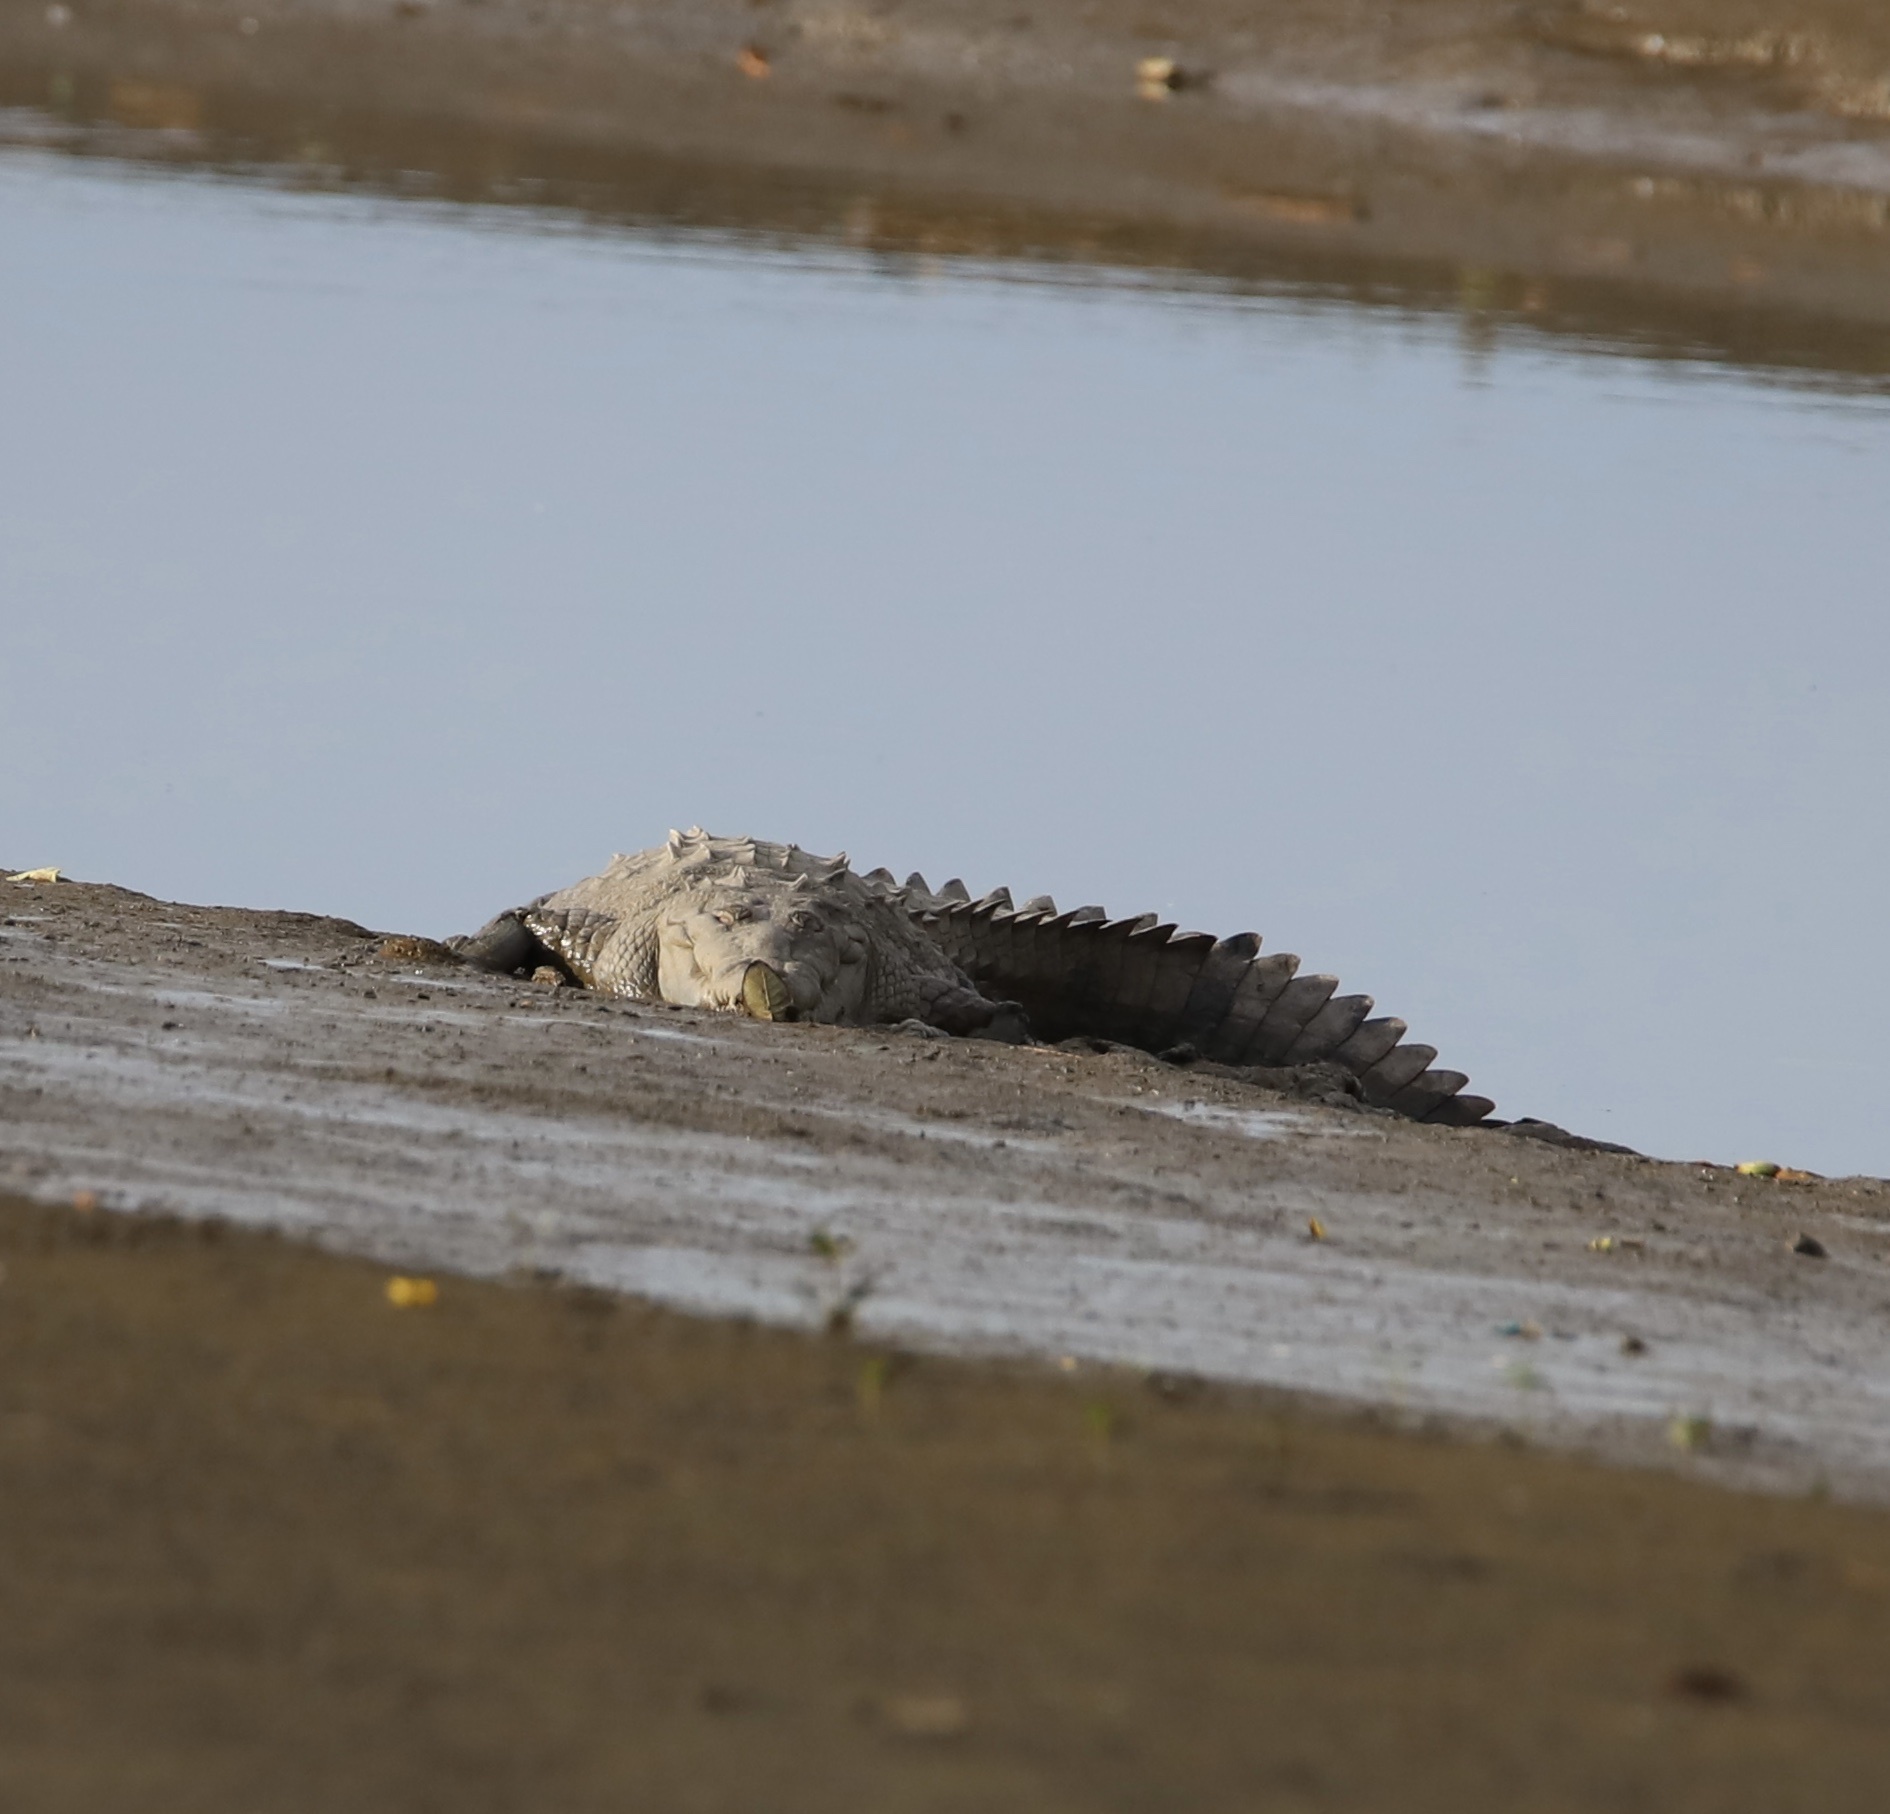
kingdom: Animalia
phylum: Chordata
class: Crocodylia
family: Crocodylidae
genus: Crocodylus
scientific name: Crocodylus acutus
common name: American crocodile
